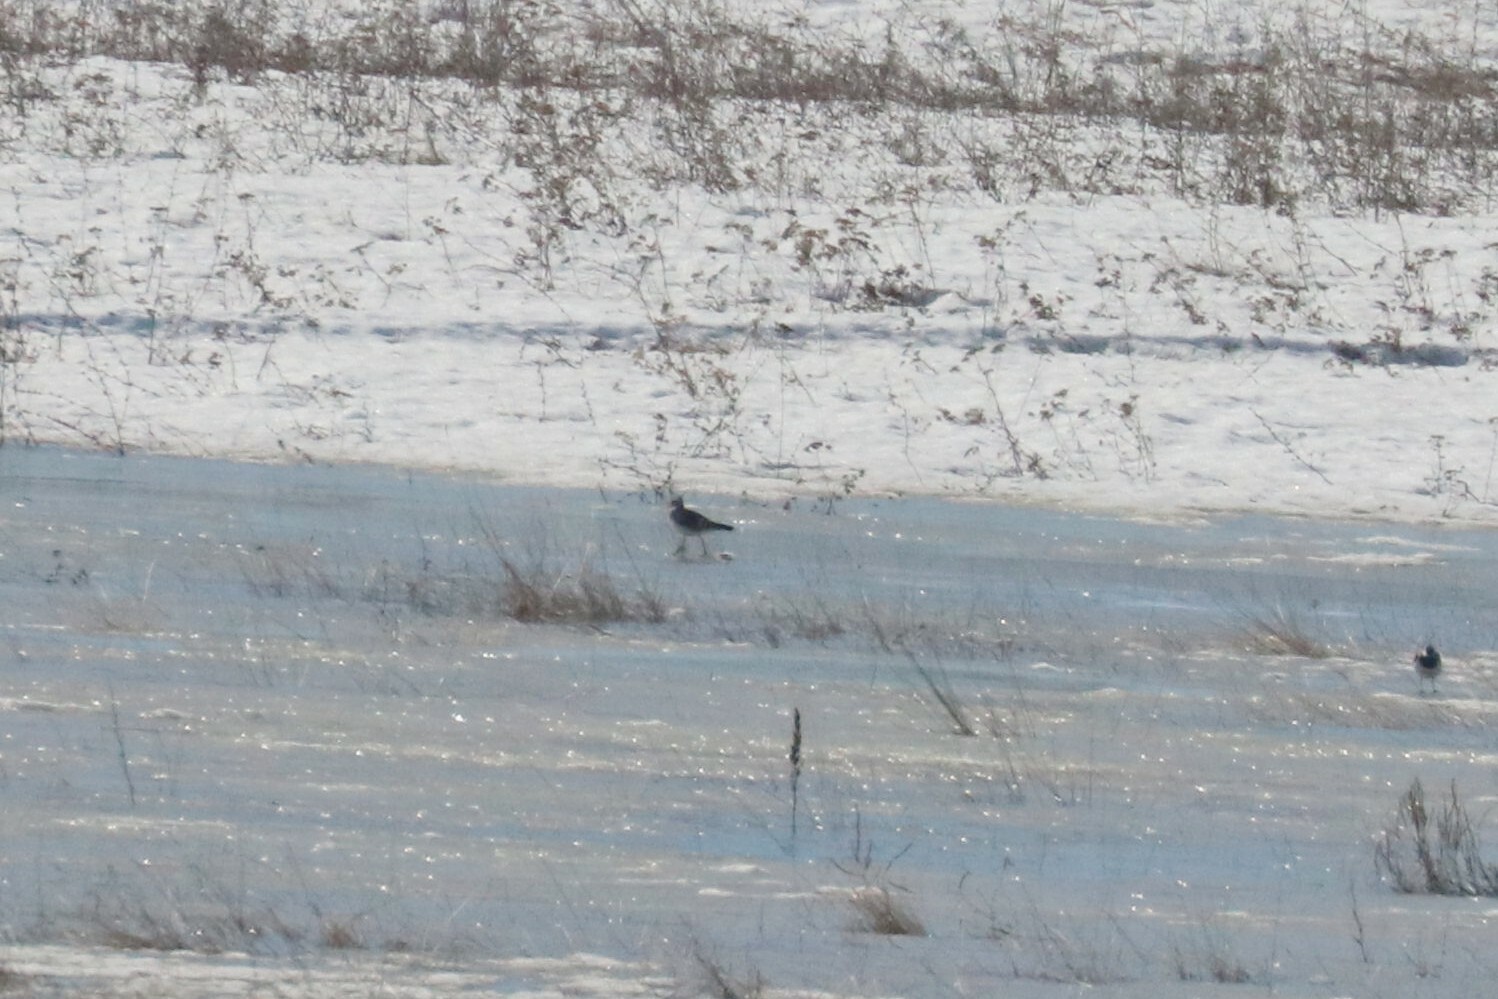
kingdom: Animalia
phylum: Chordata
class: Aves
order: Charadriiformes
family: Charadriidae
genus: Vanellus
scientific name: Vanellus vanellus
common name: Northern lapwing
